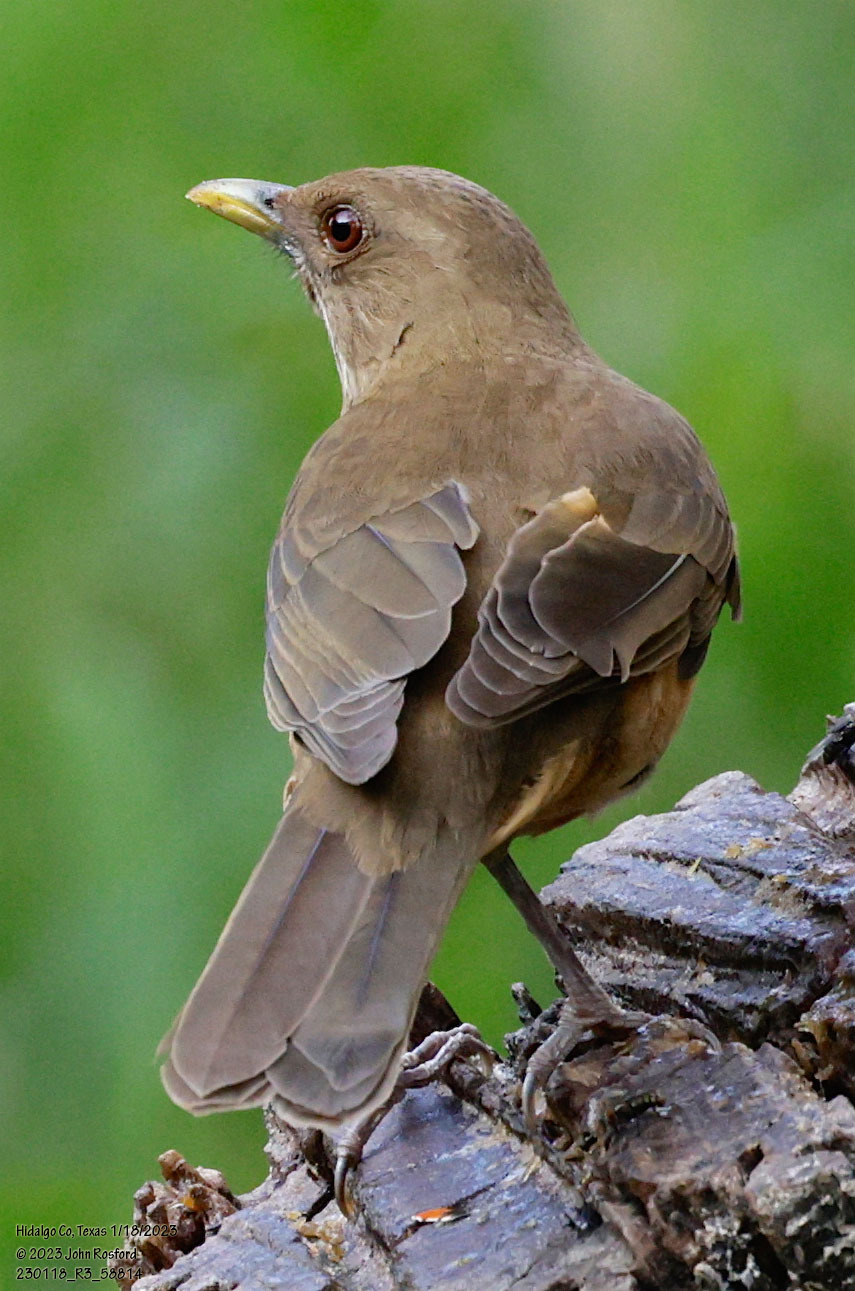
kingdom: Animalia
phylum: Chordata
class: Aves
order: Passeriformes
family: Turdidae
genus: Turdus
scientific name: Turdus grayi
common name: Clay-colored thrush
